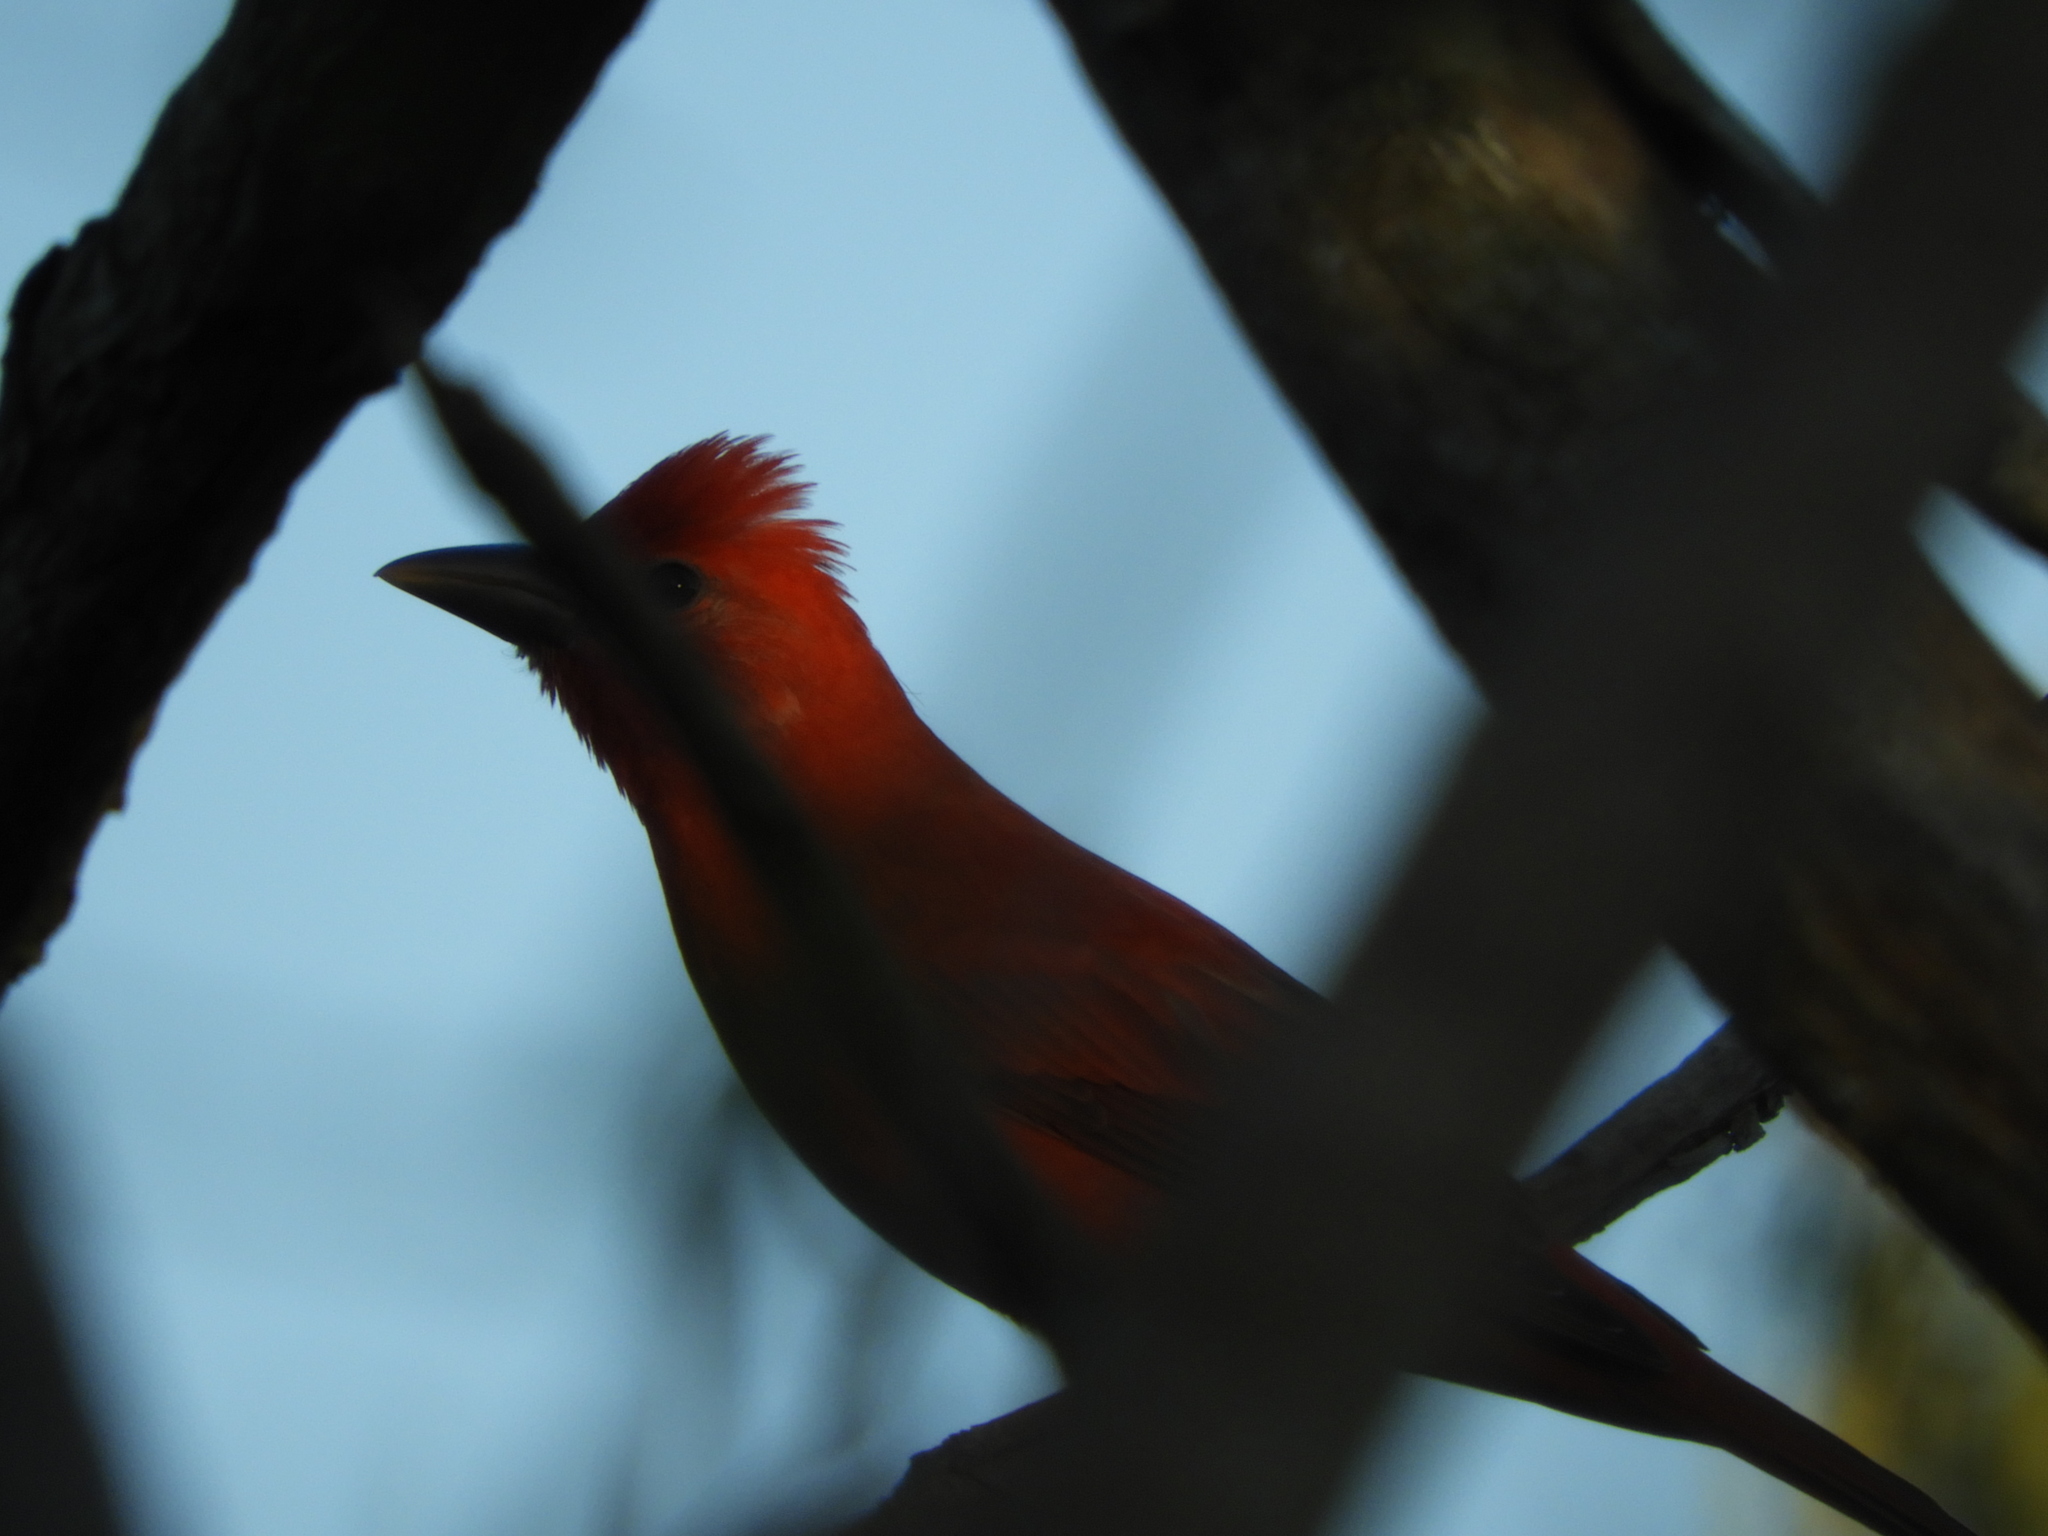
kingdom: Animalia
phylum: Chordata
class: Aves
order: Passeriformes
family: Cardinalidae
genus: Piranga
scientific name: Piranga rubra
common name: Summer tanager
